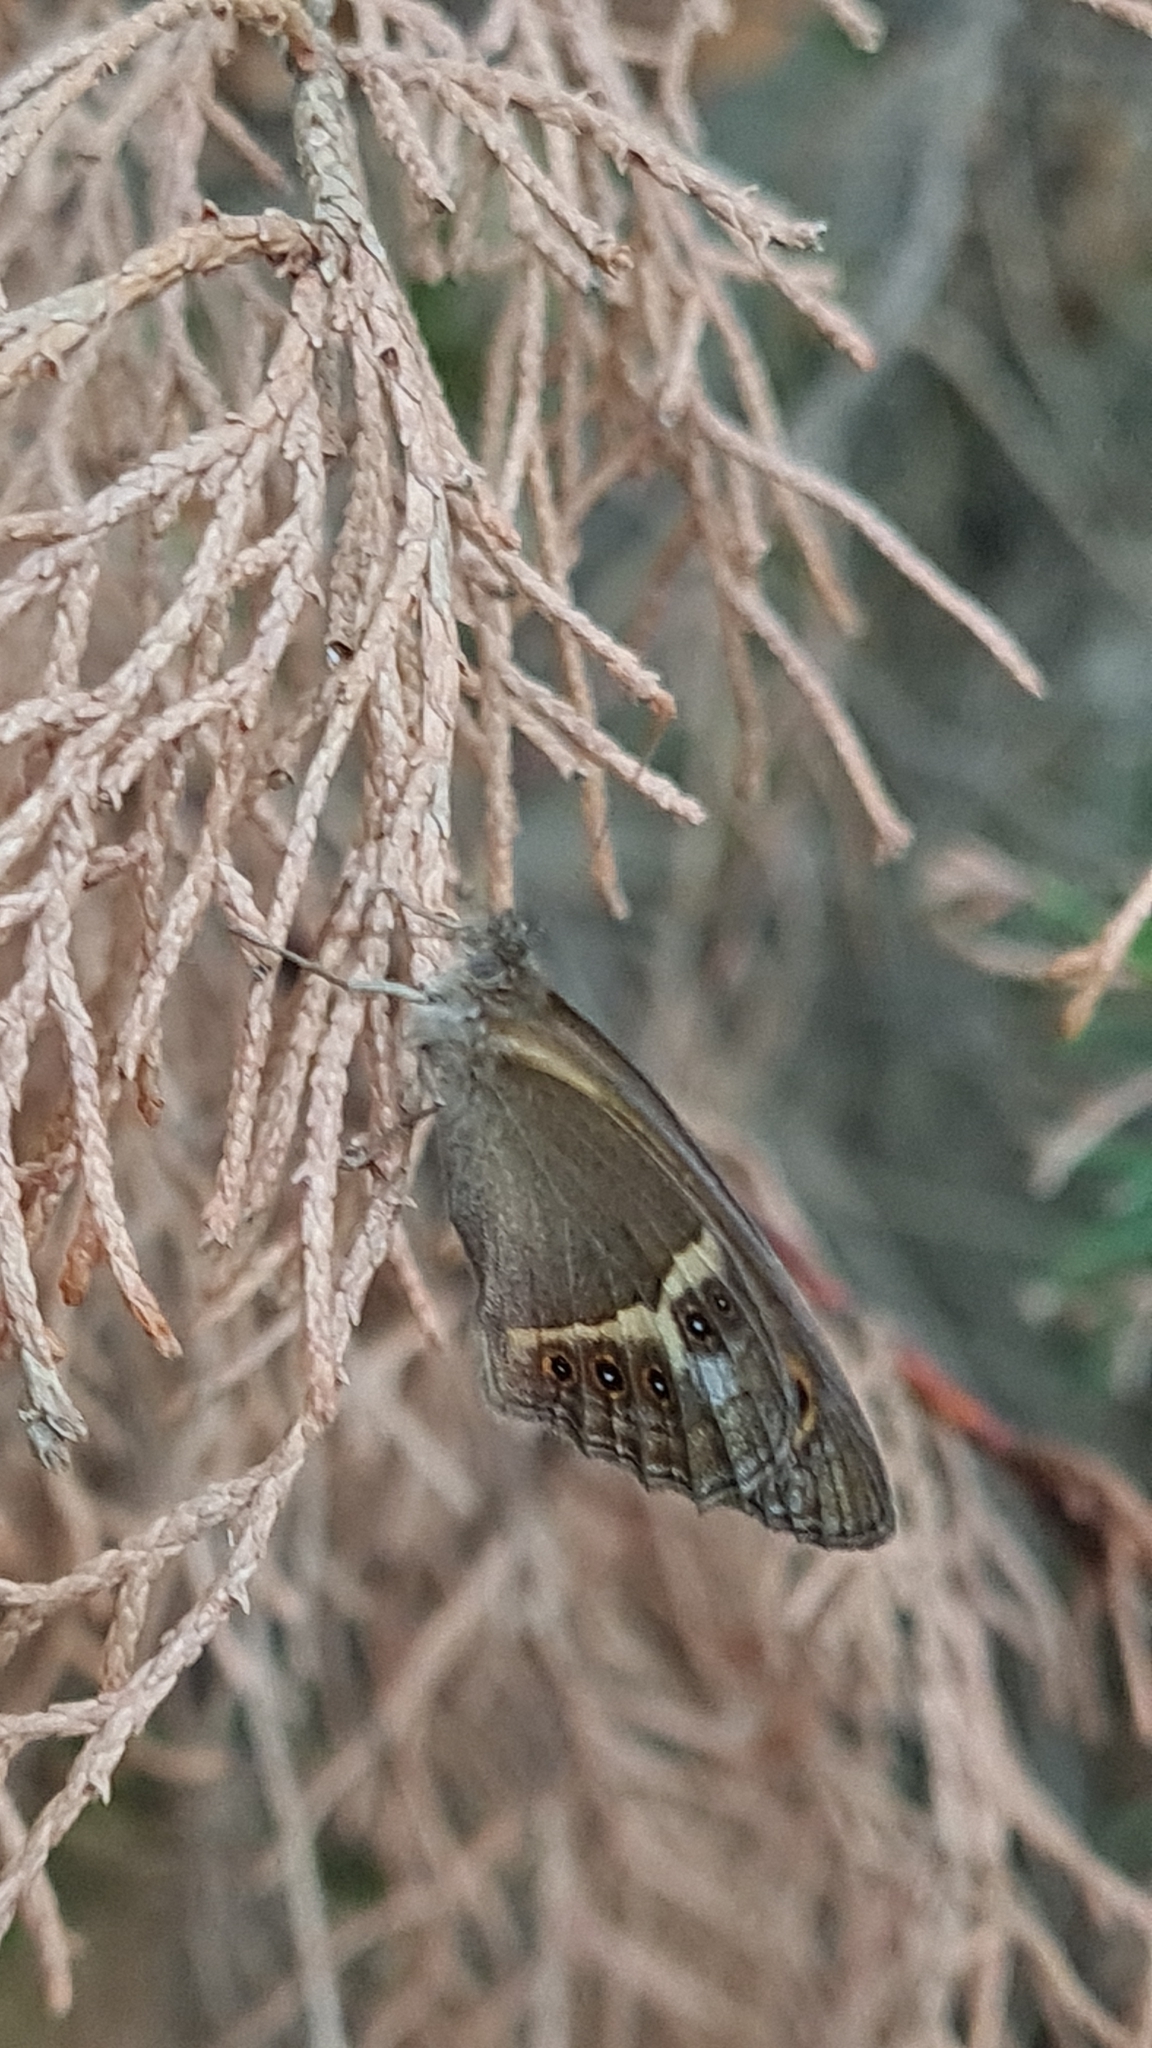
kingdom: Animalia
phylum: Arthropoda
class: Insecta
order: Lepidoptera
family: Nymphalidae
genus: Pyronia
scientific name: Pyronia bathseba
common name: Spanish gatekeeper
